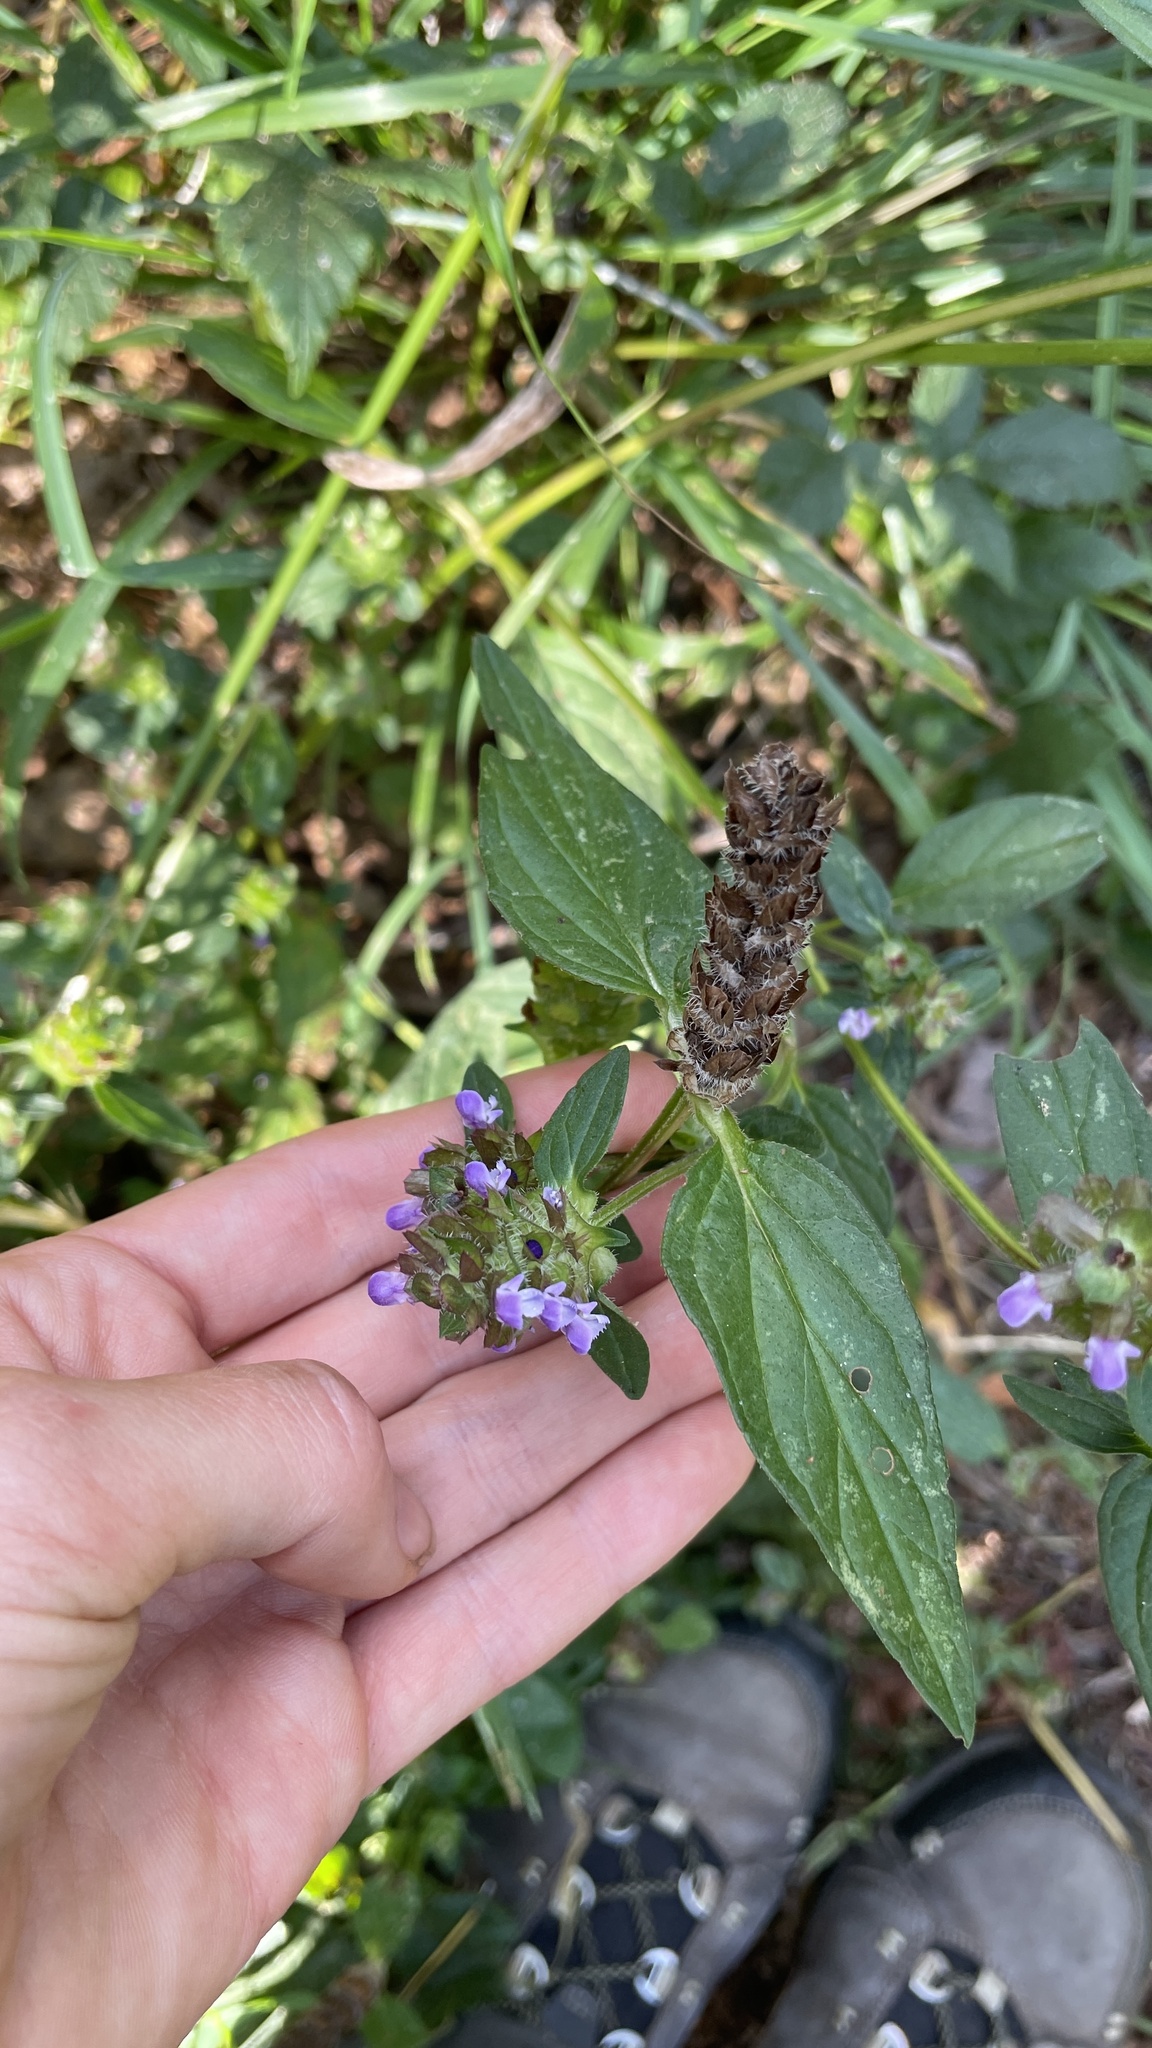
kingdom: Plantae
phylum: Tracheophyta
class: Magnoliopsida
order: Lamiales
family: Lamiaceae
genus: Prunella
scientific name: Prunella vulgaris
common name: Heal-all
